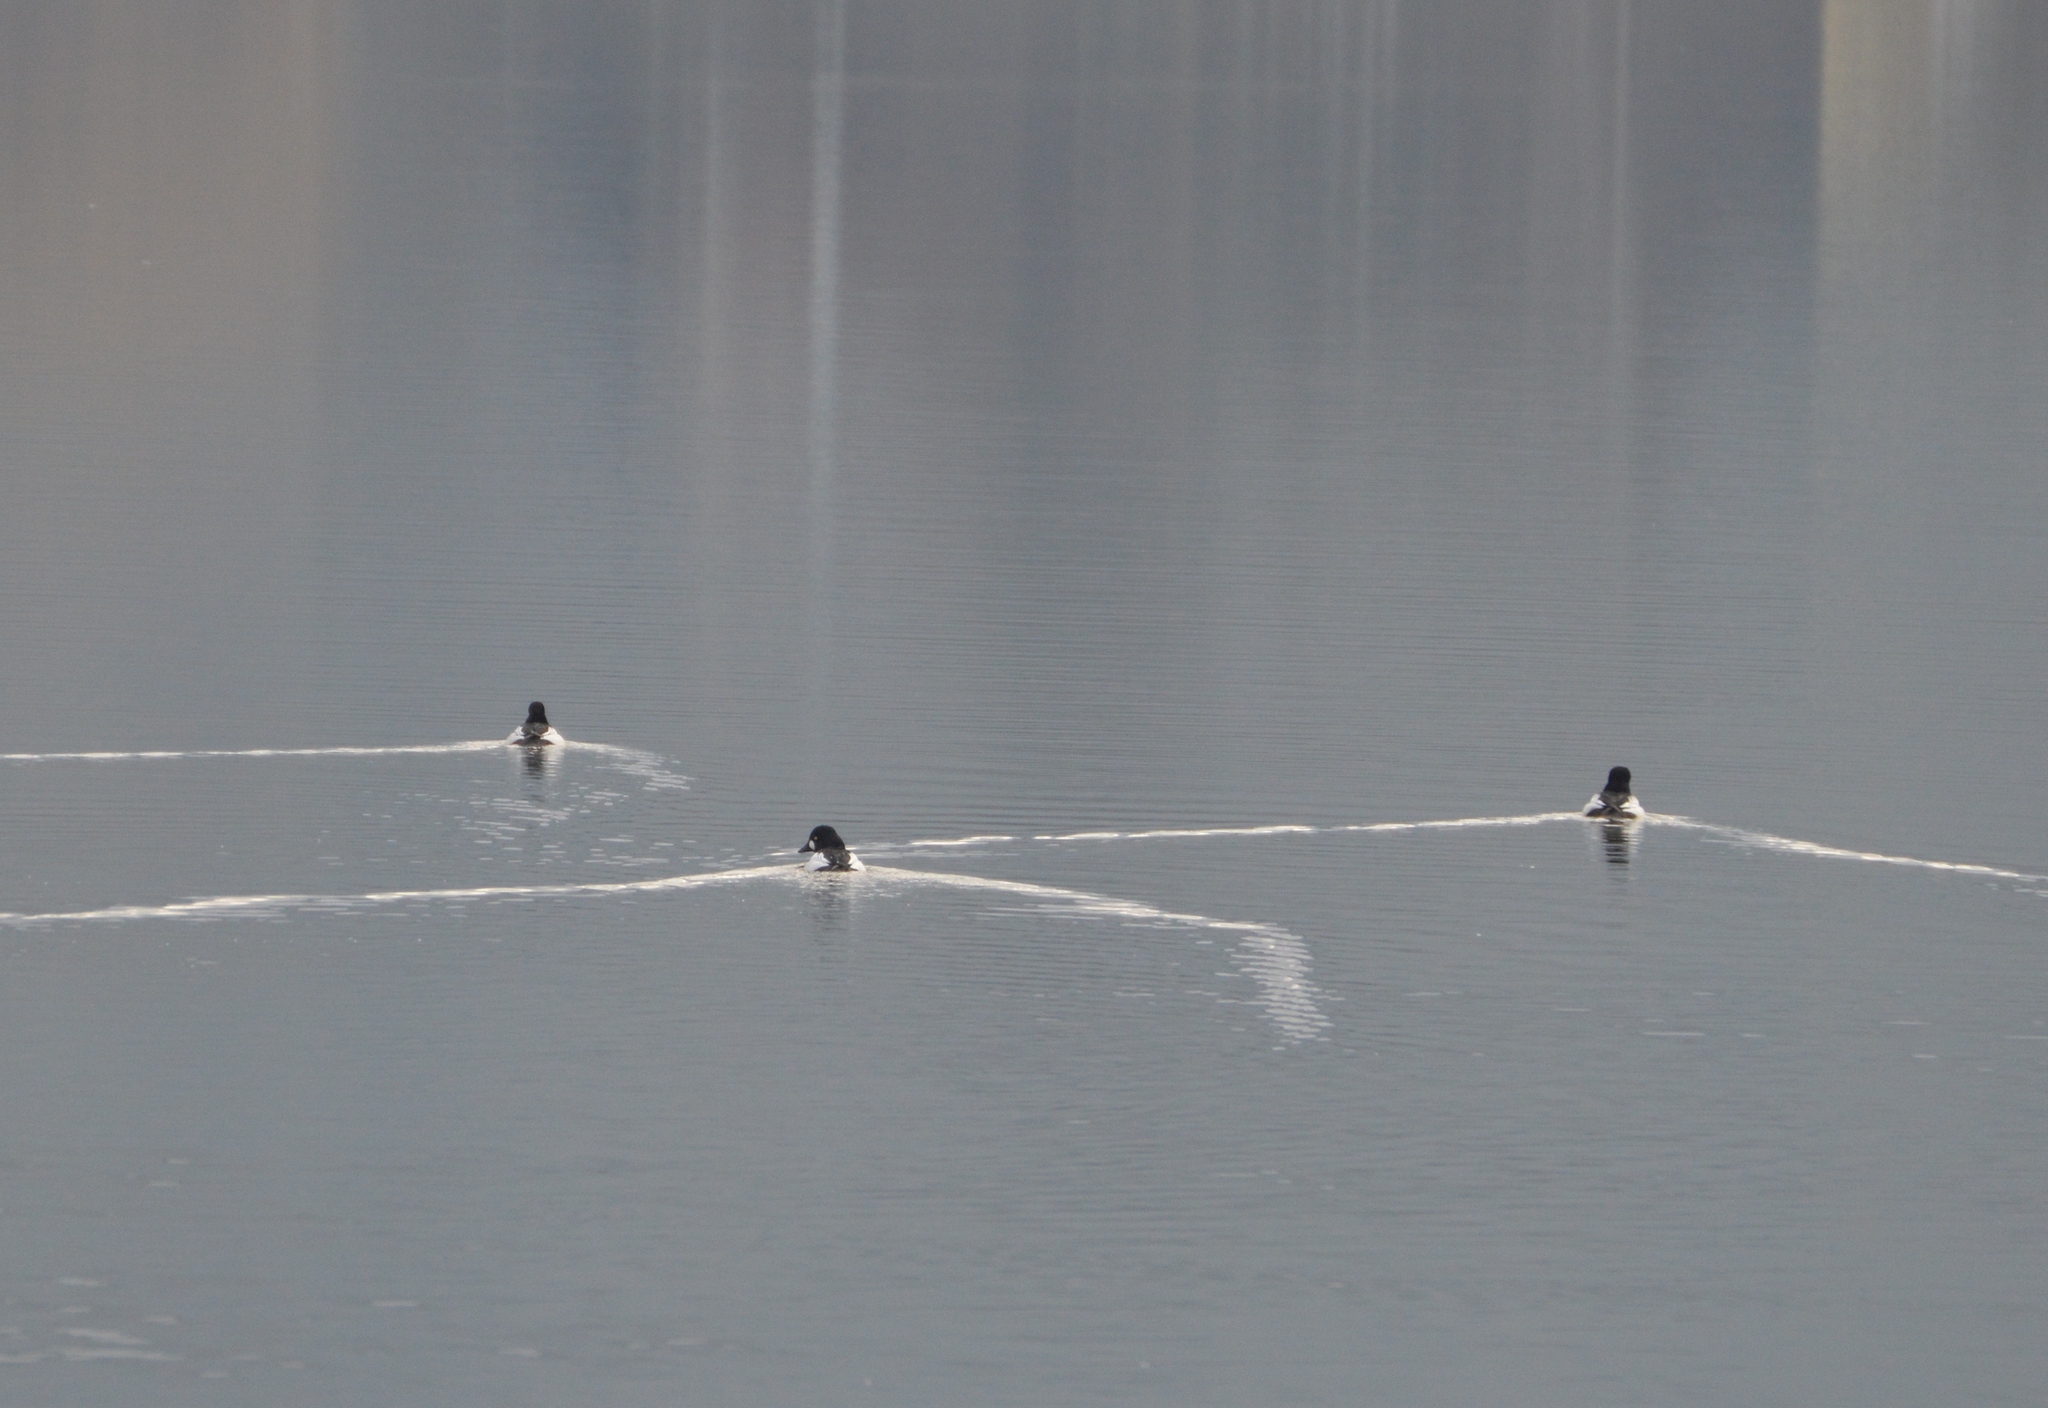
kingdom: Animalia
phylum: Chordata
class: Aves
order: Anseriformes
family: Anatidae
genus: Bucephala
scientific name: Bucephala clangula
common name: Common goldeneye
